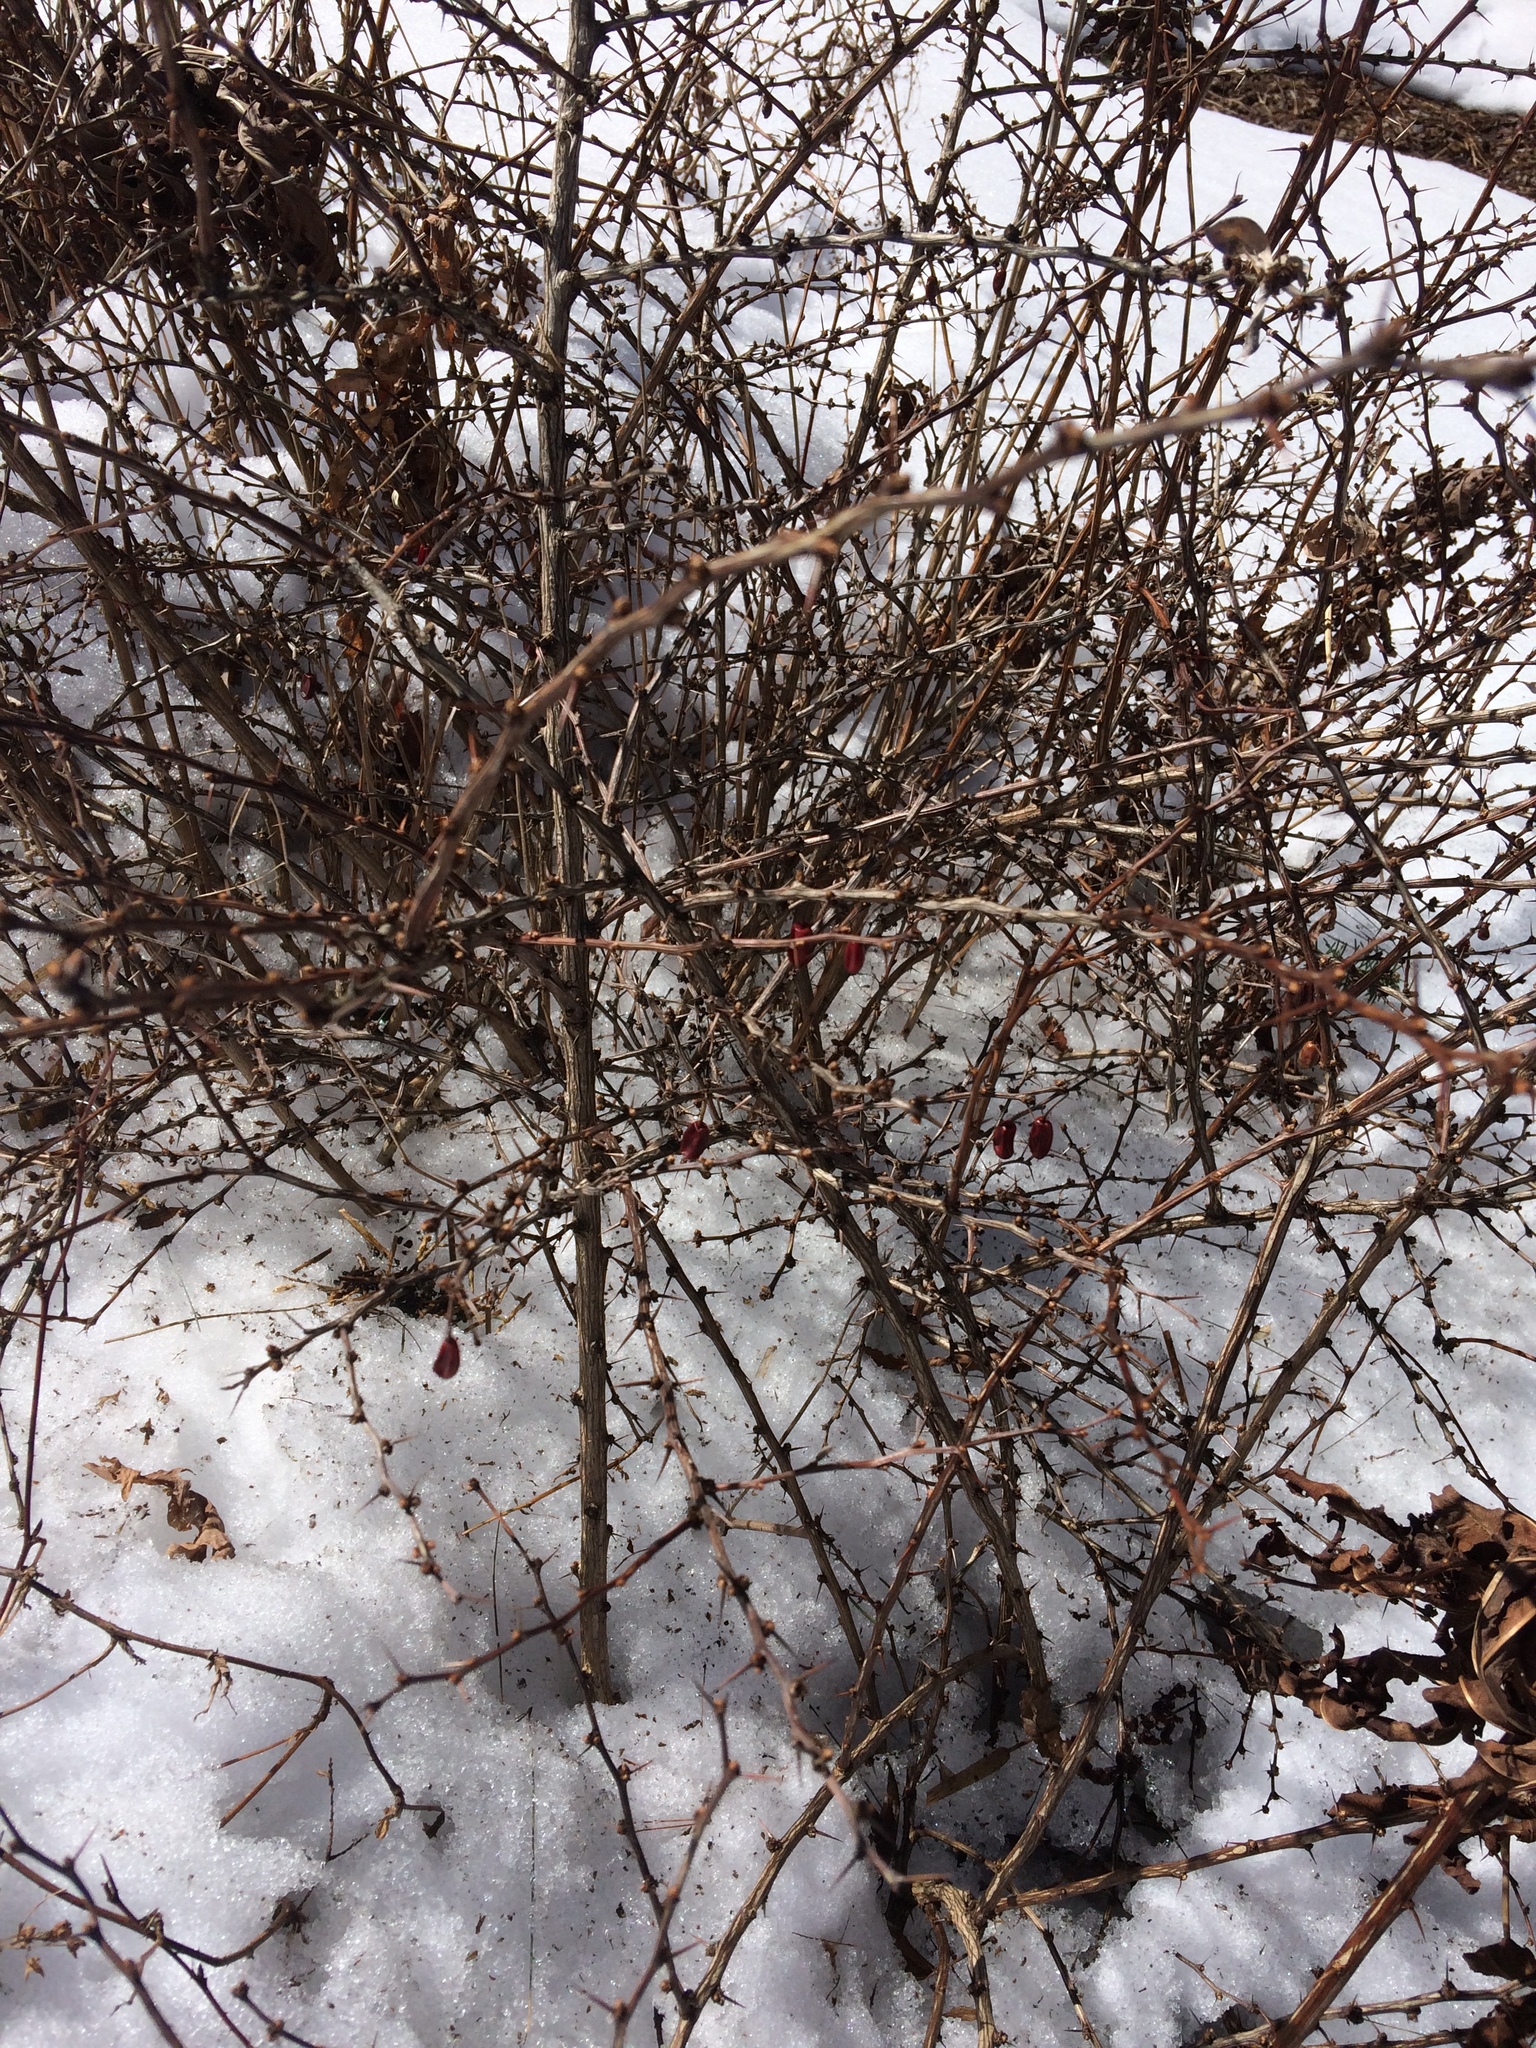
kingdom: Plantae
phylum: Tracheophyta
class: Magnoliopsida
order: Ranunculales
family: Berberidaceae
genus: Berberis
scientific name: Berberis thunbergii
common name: Japanese barberry
